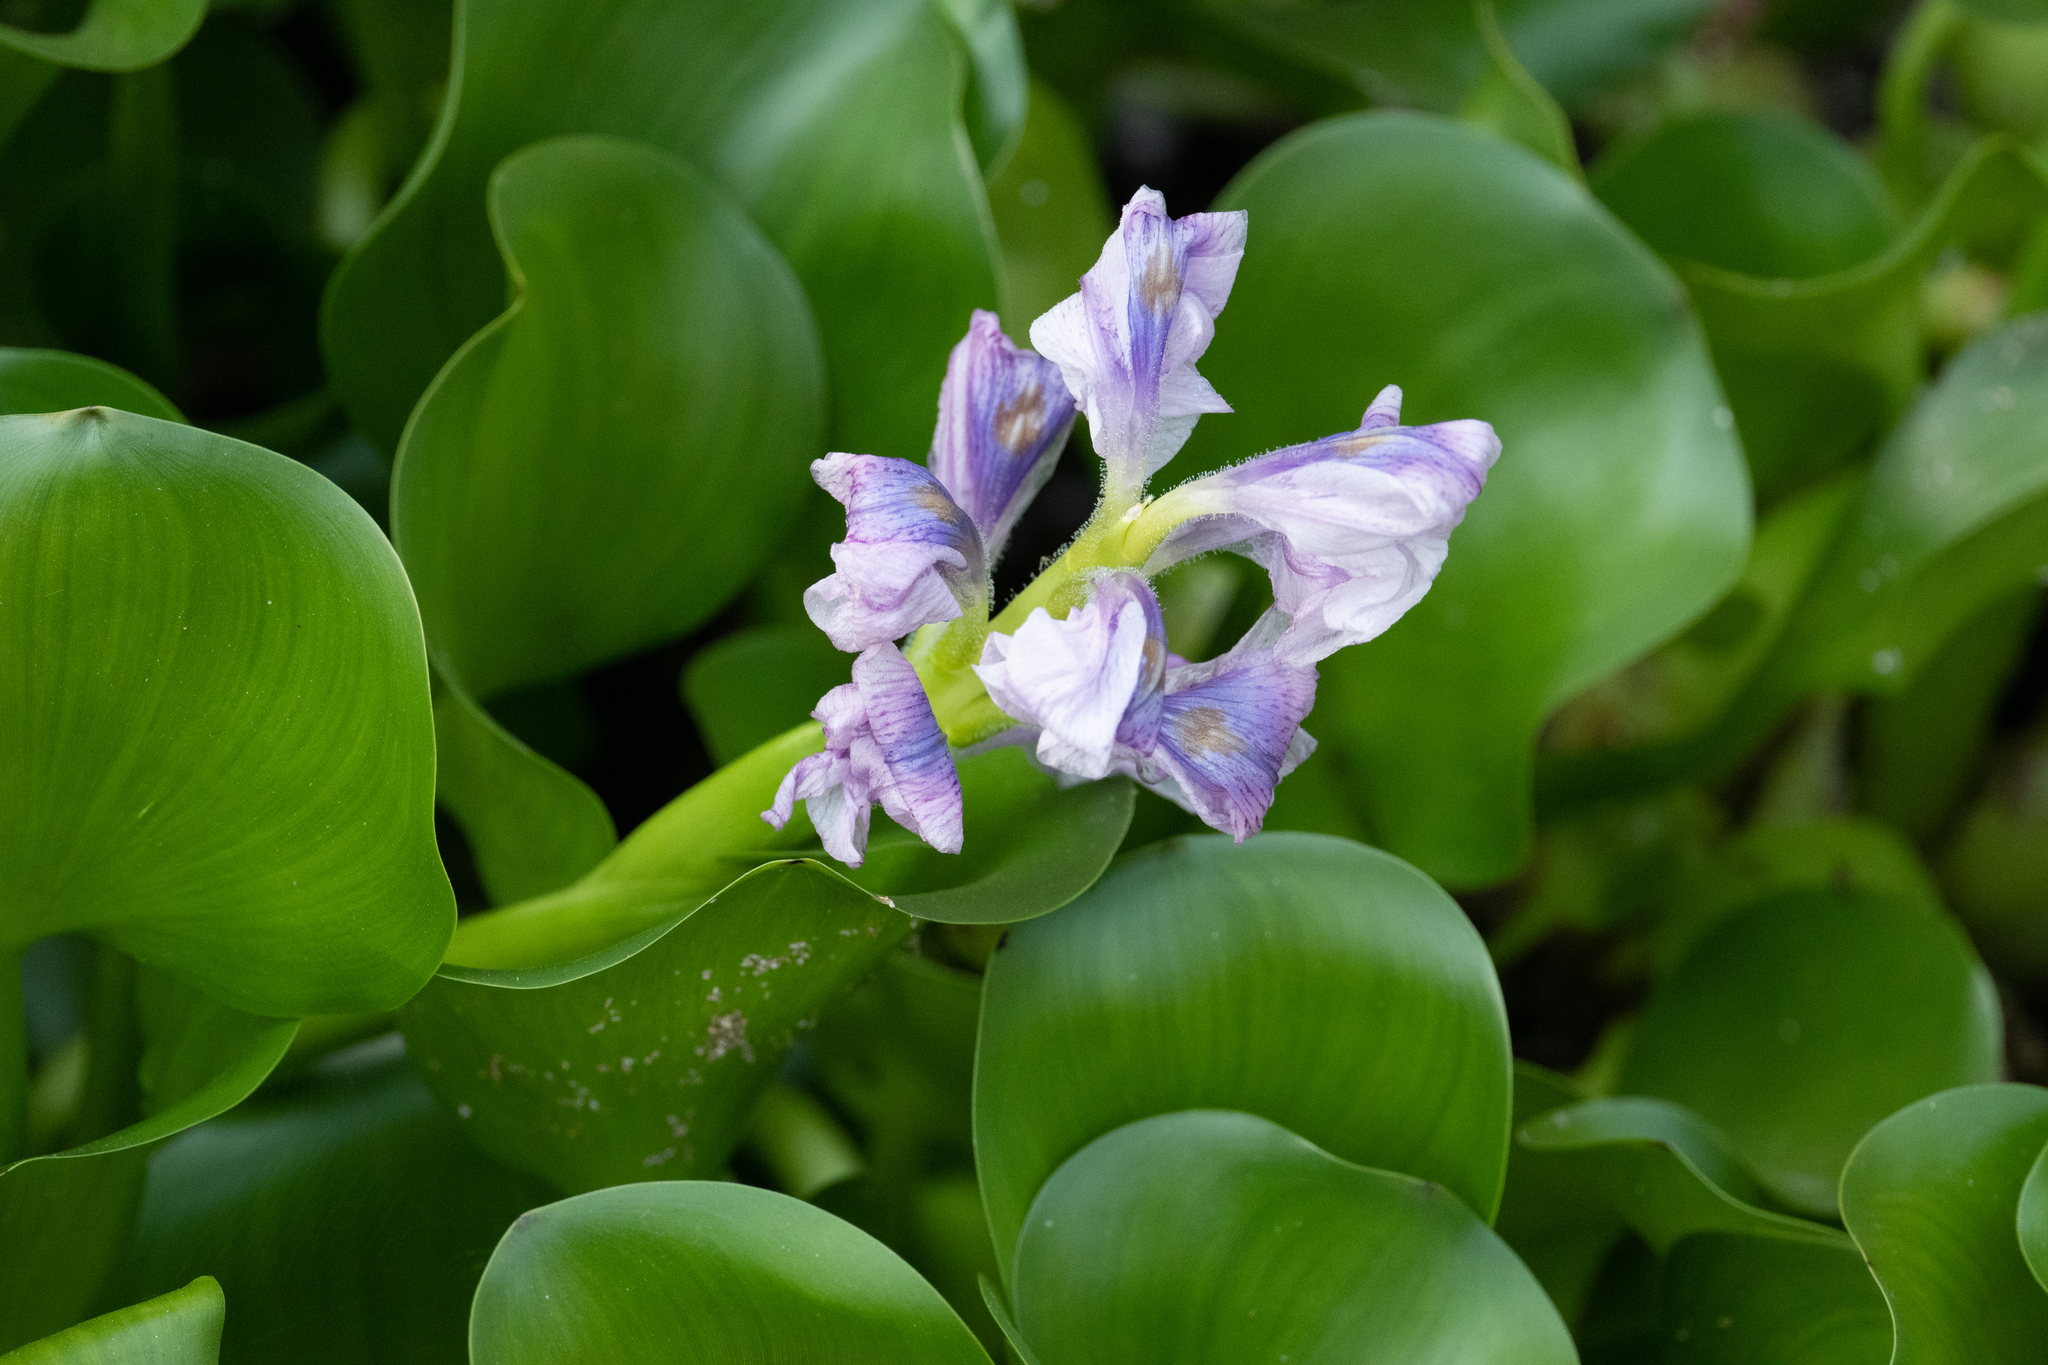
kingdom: Plantae
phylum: Tracheophyta
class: Liliopsida
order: Commelinales
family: Pontederiaceae
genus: Pontederia
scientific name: Pontederia crassipes
